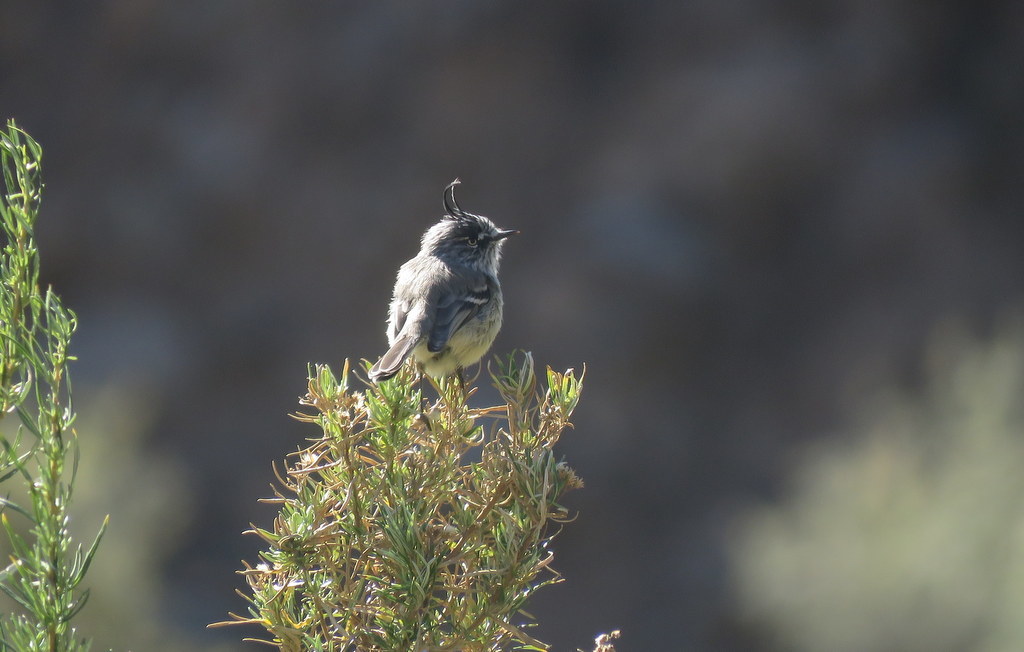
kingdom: Animalia
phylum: Chordata
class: Aves
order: Passeriformes
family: Tyrannidae
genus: Anairetes
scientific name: Anairetes parulus
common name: Tufted tit-tyrant
